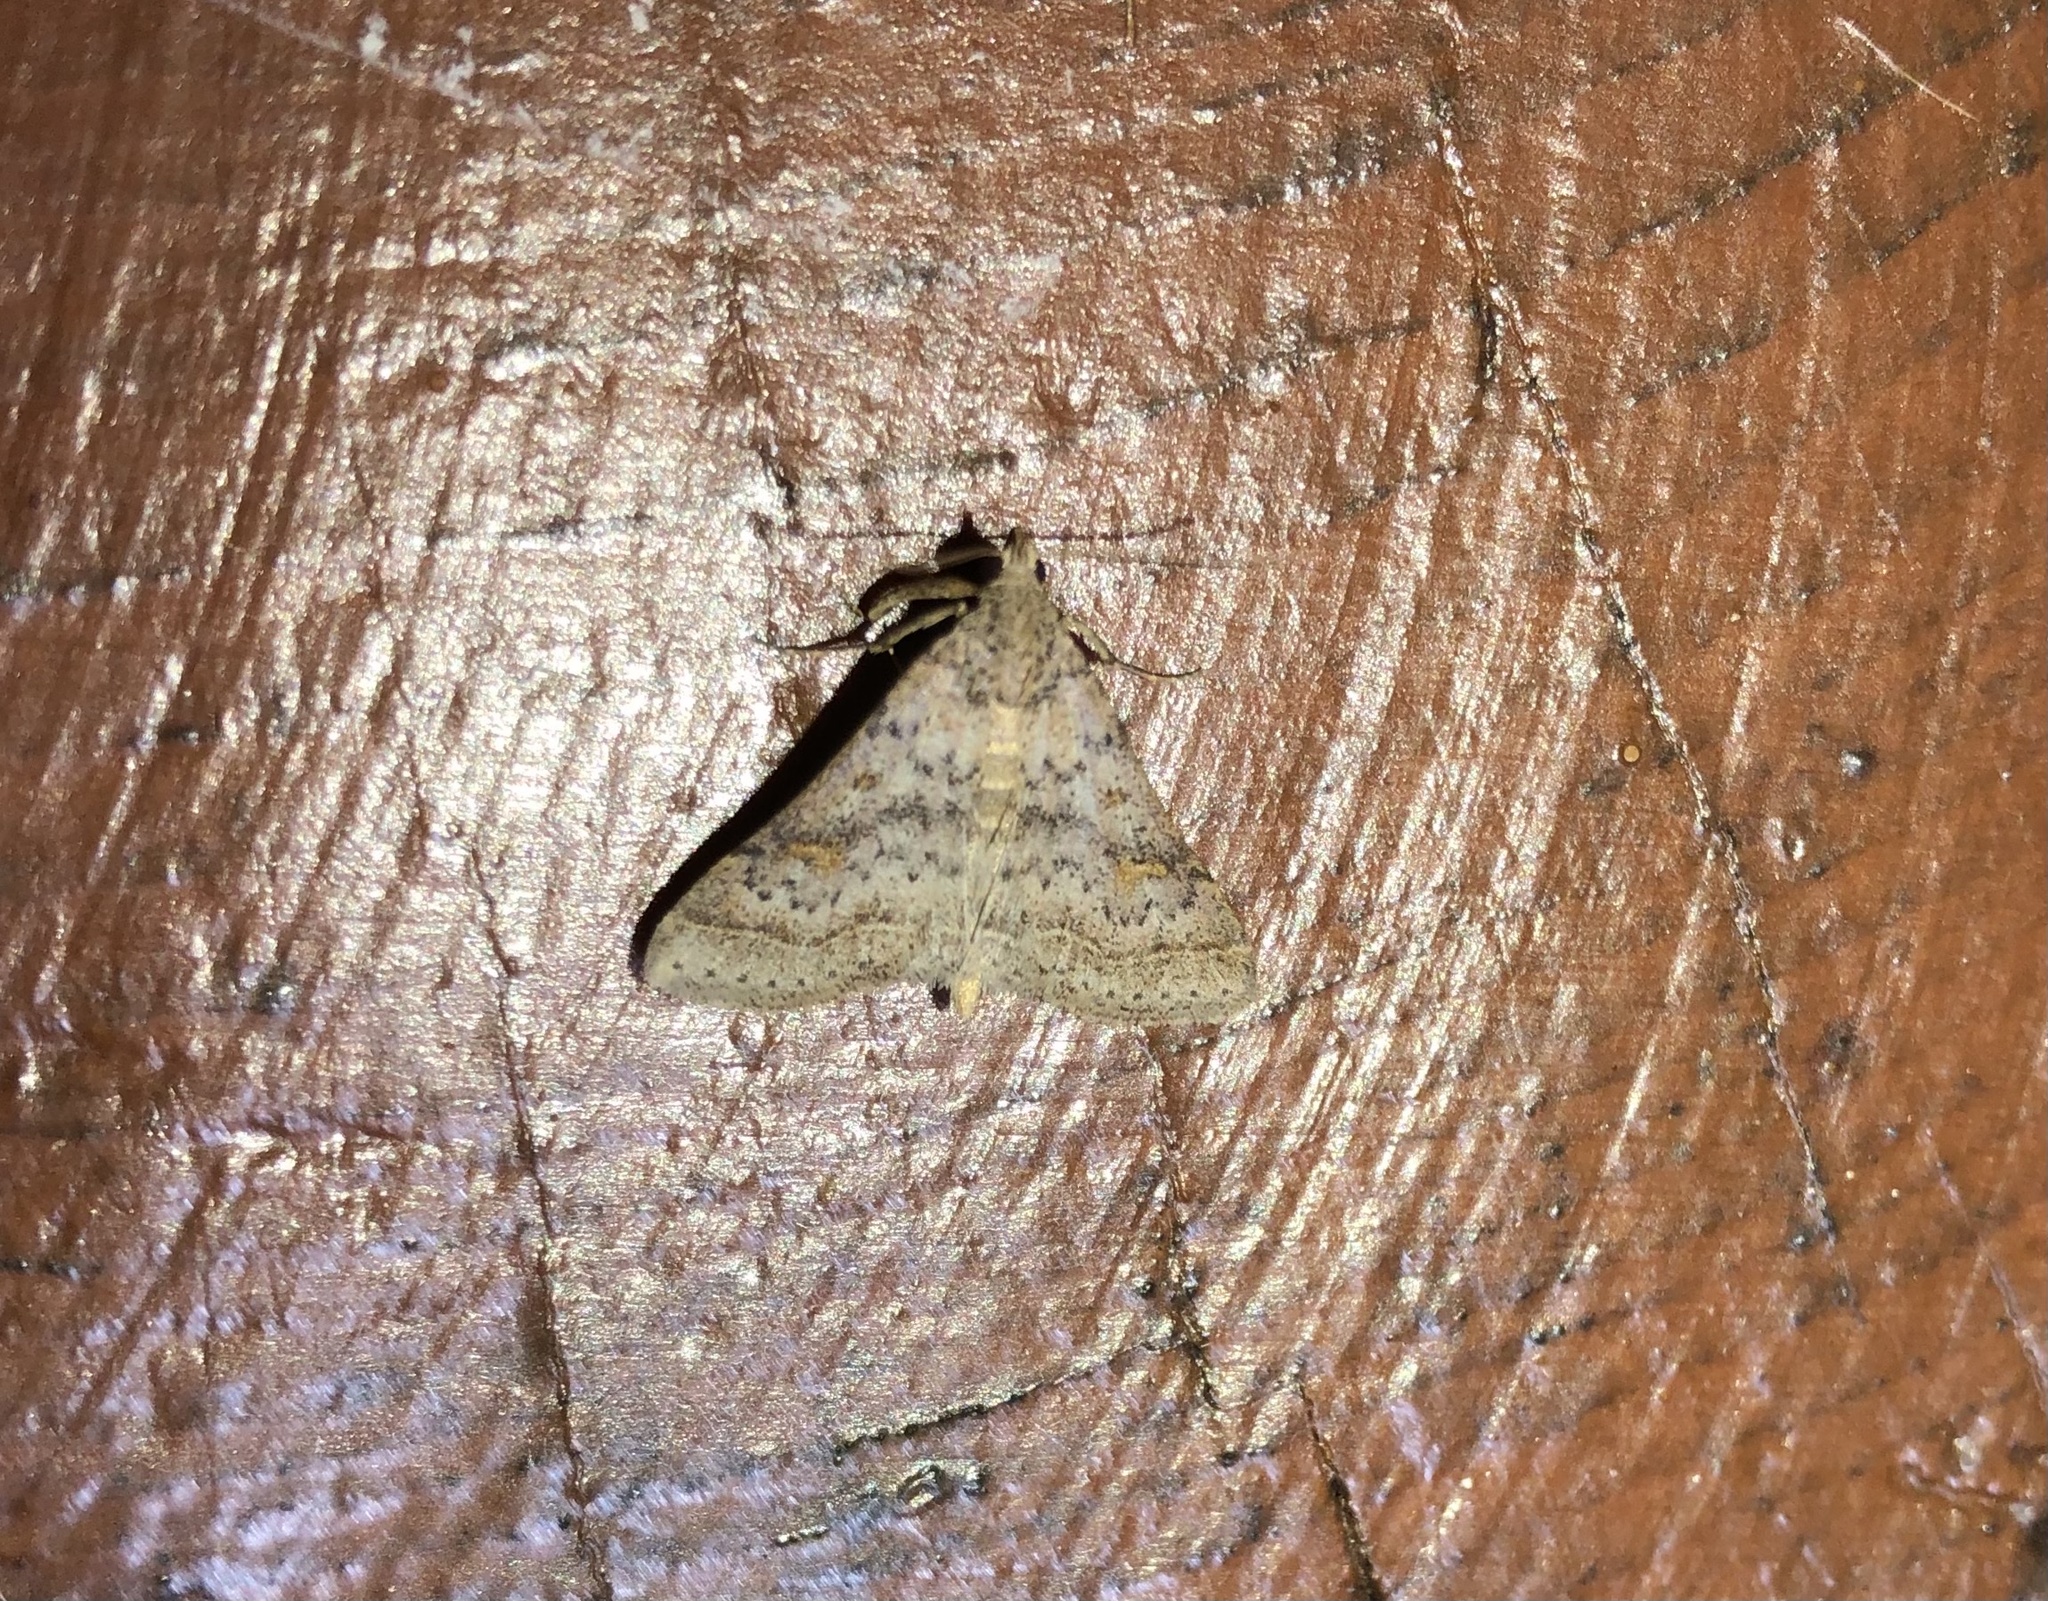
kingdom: Animalia
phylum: Arthropoda
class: Insecta
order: Lepidoptera
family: Erebidae
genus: Bleptina
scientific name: Bleptina caradrinalis
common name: Bent-winged owlet
